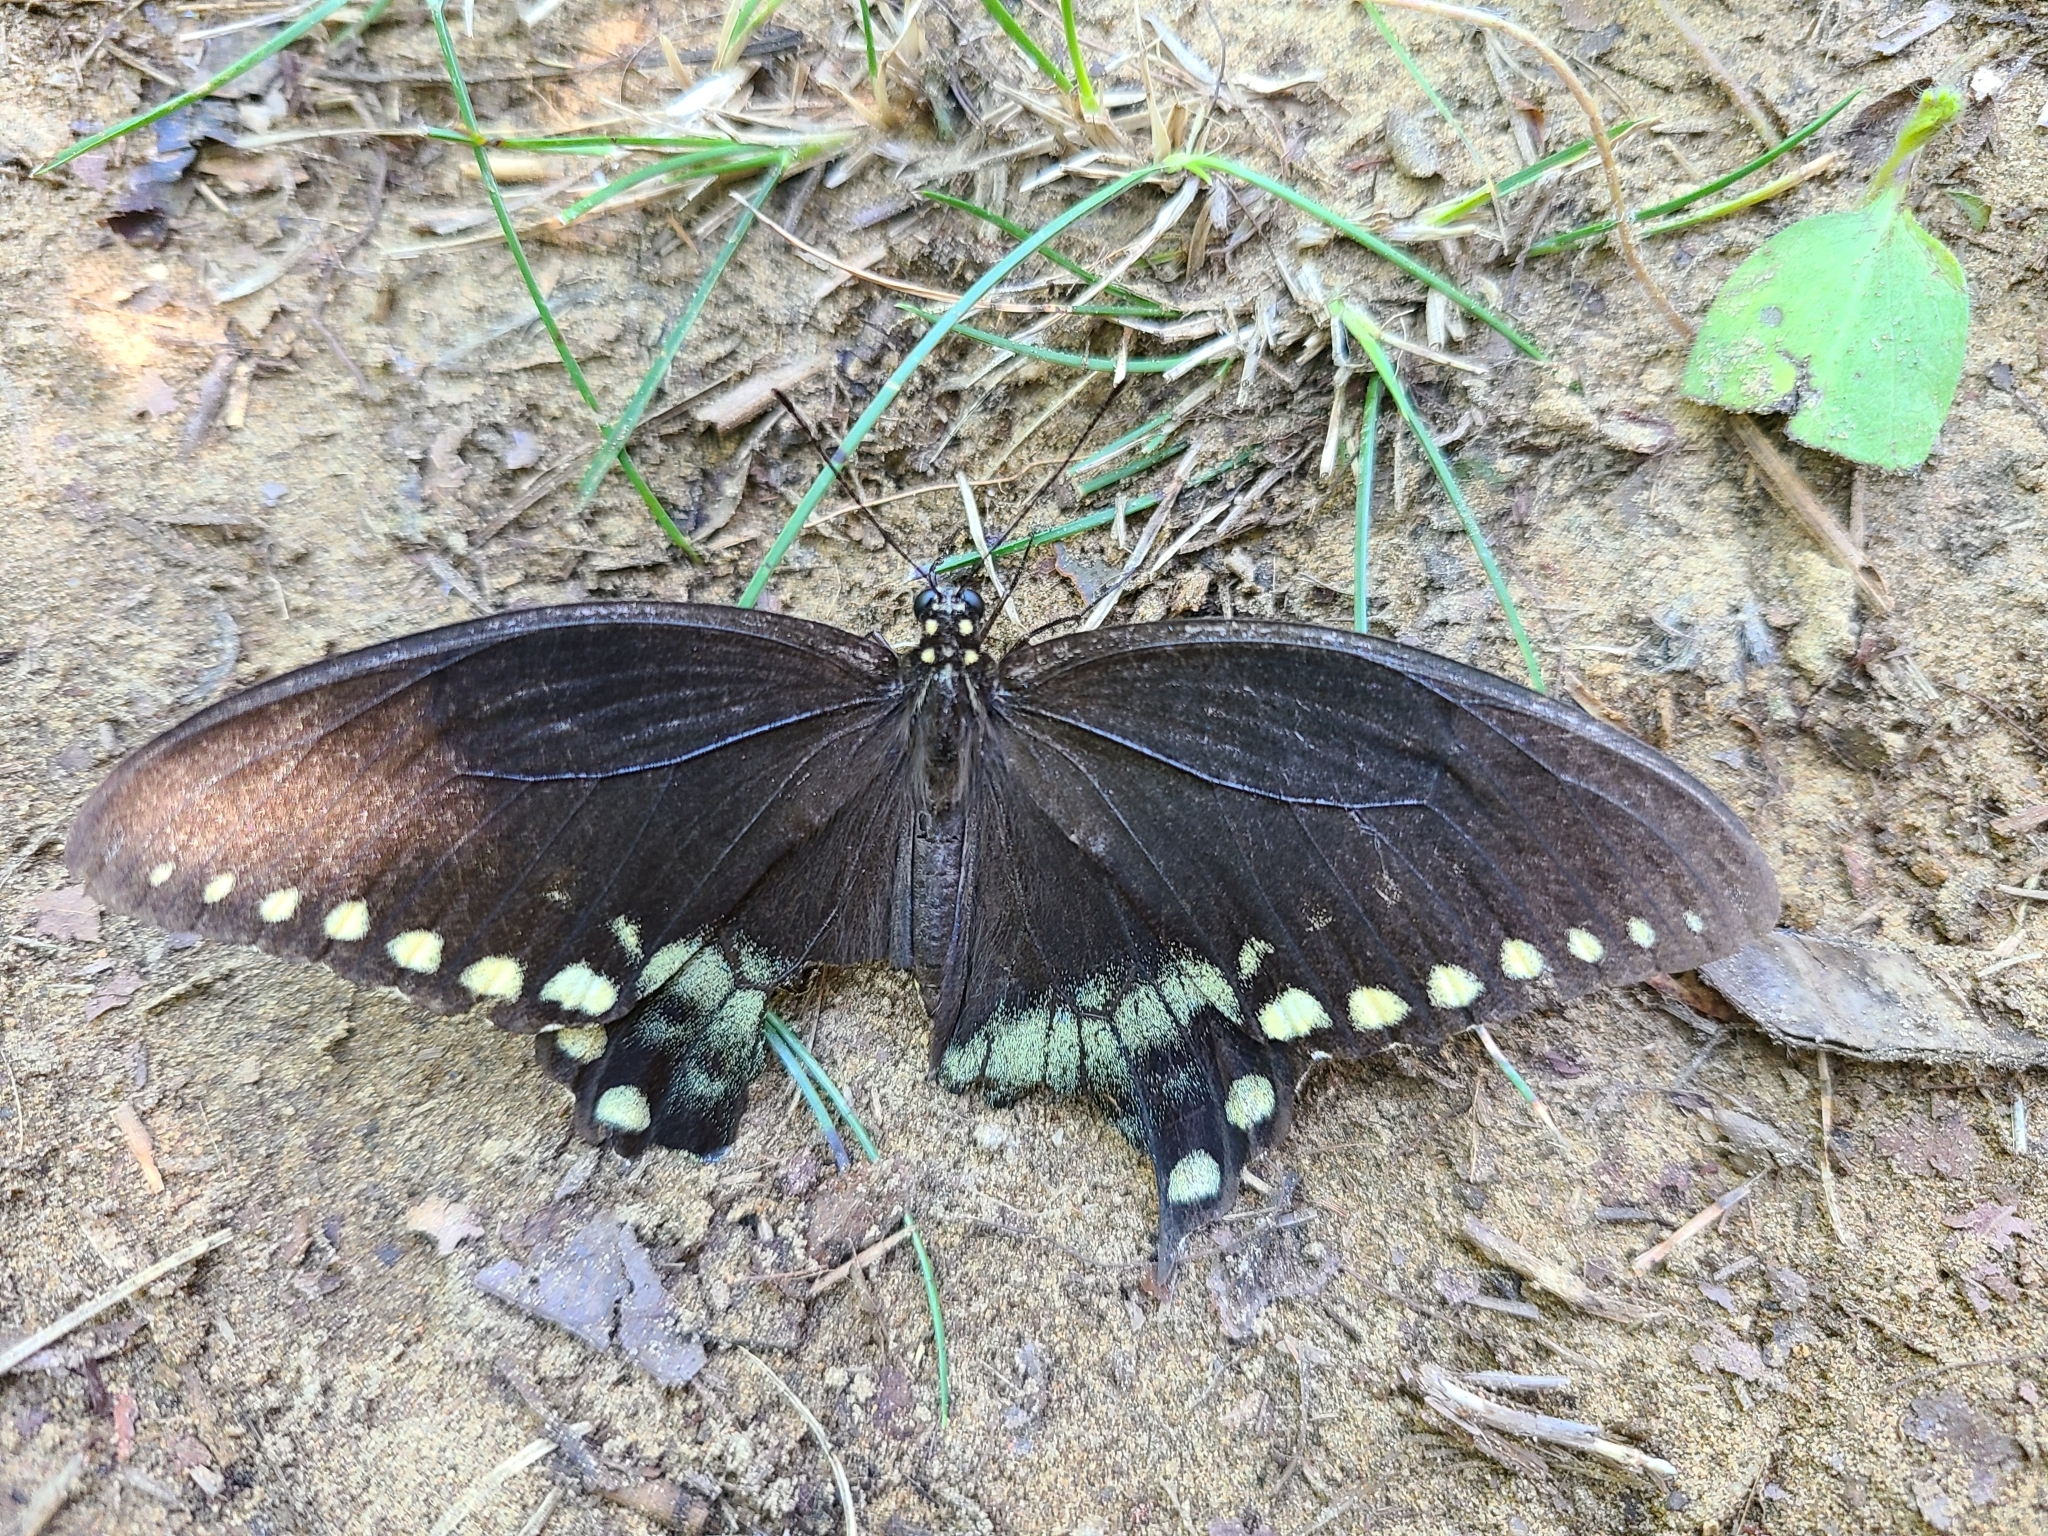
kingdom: Animalia
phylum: Arthropoda
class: Insecta
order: Lepidoptera
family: Papilionidae
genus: Papilio
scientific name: Papilio troilus
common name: Spicebush swallowtail
